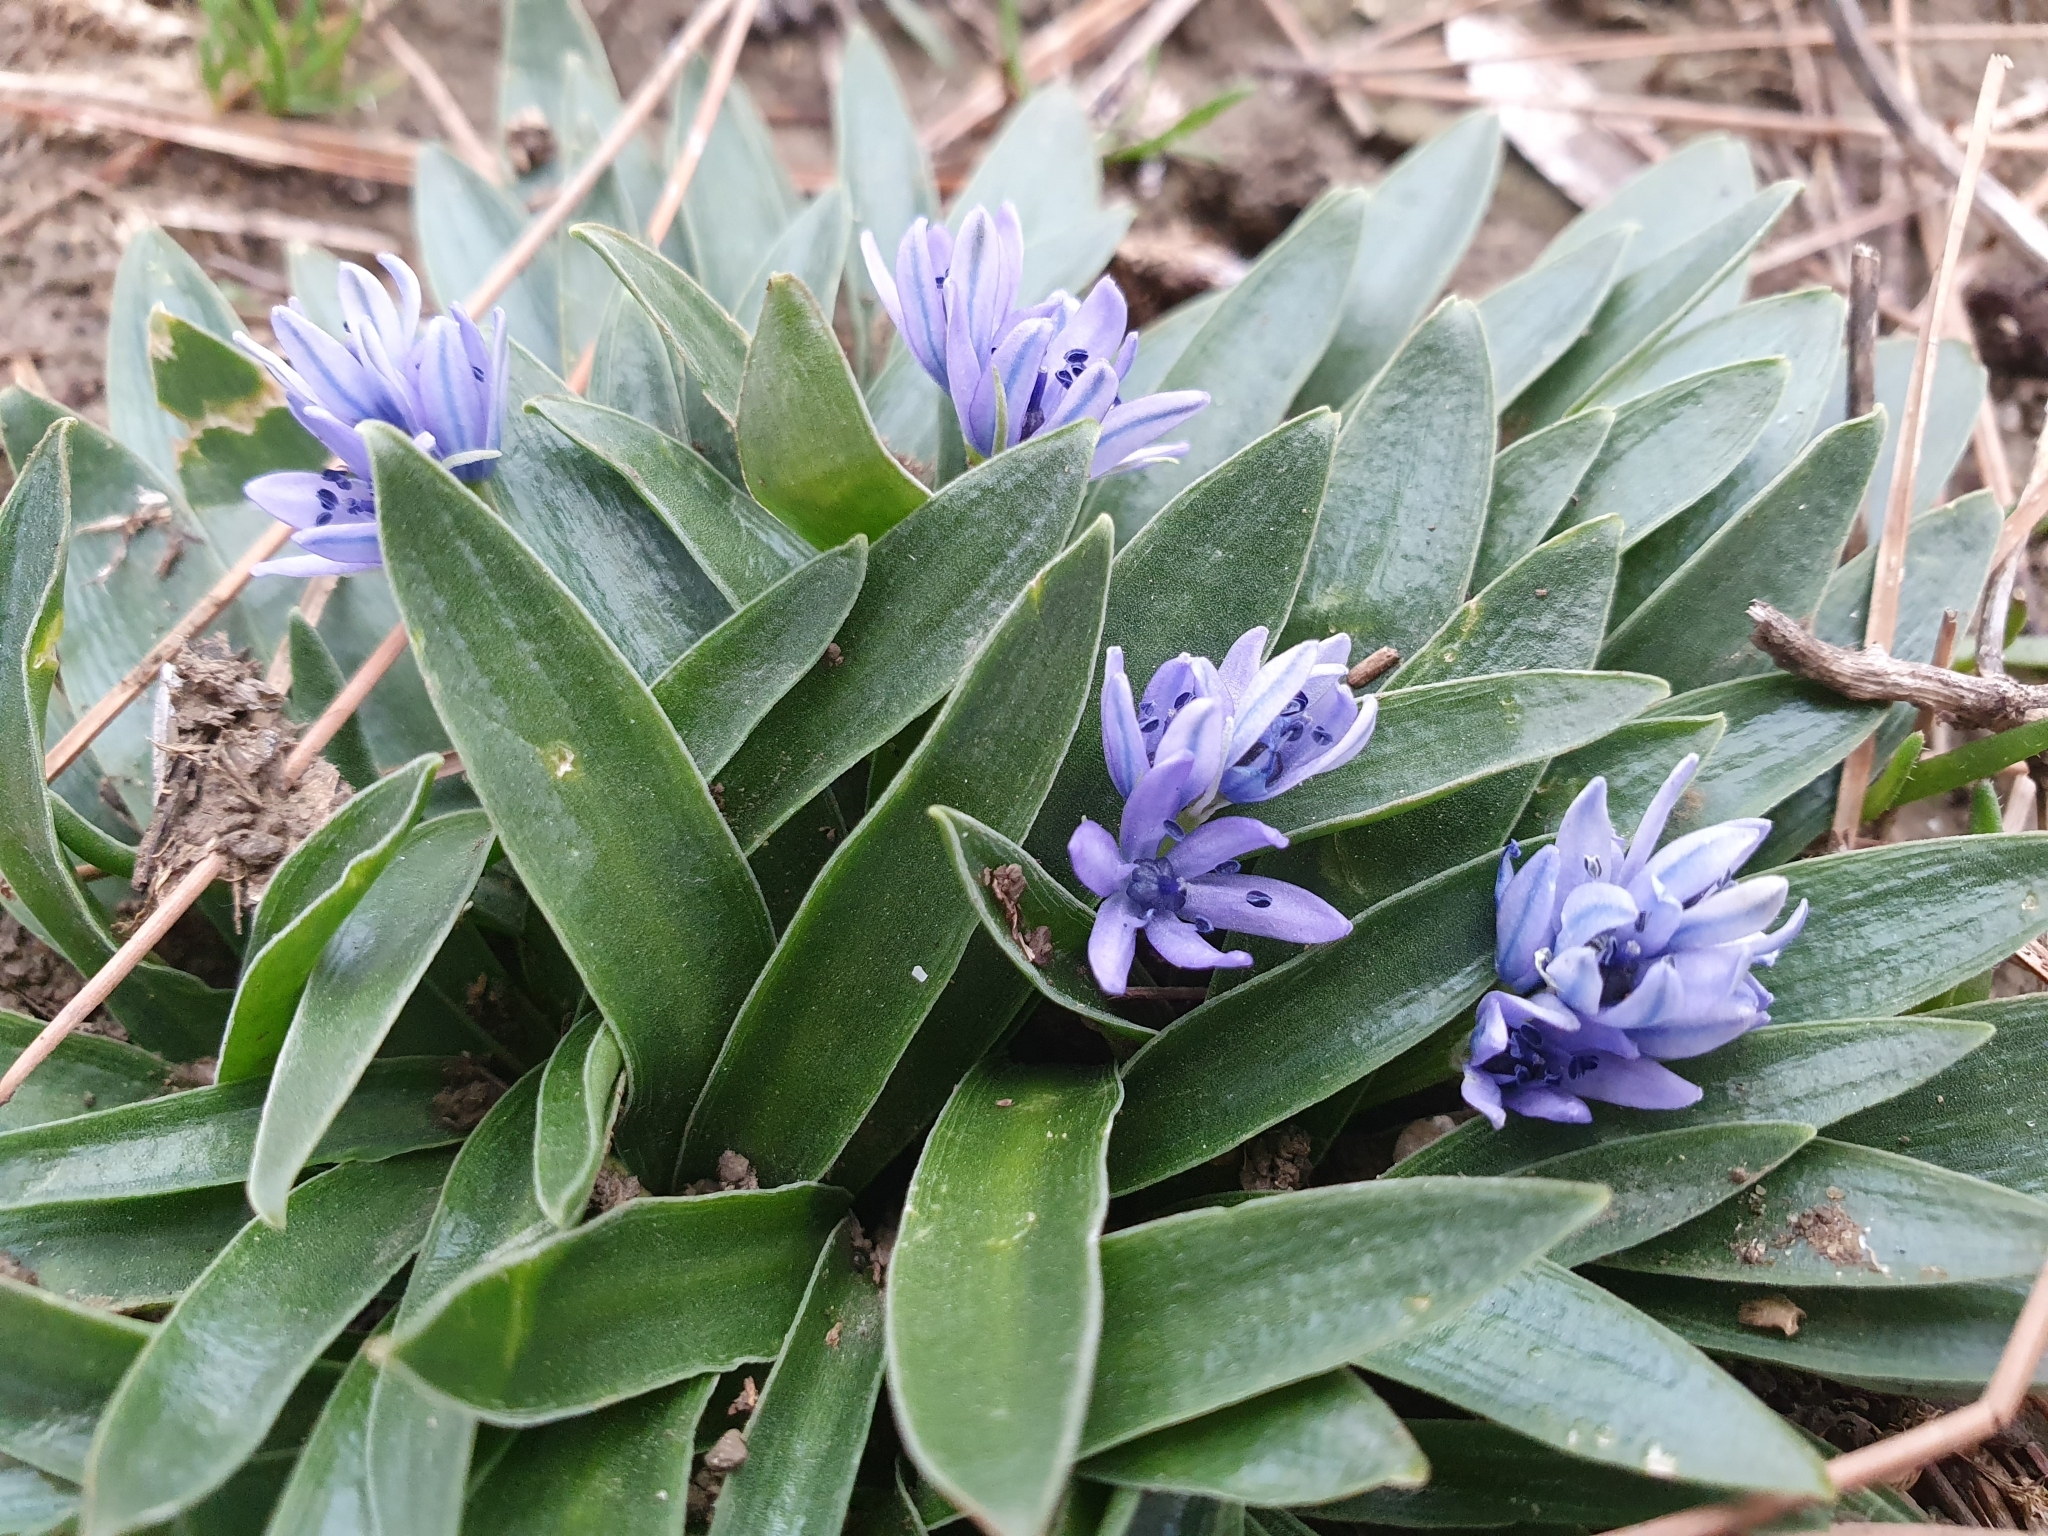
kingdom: Plantae
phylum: Tracheophyta
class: Liliopsida
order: Asparagales
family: Asparagaceae
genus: Hyacinthoides
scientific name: Hyacinthoides lingulata
